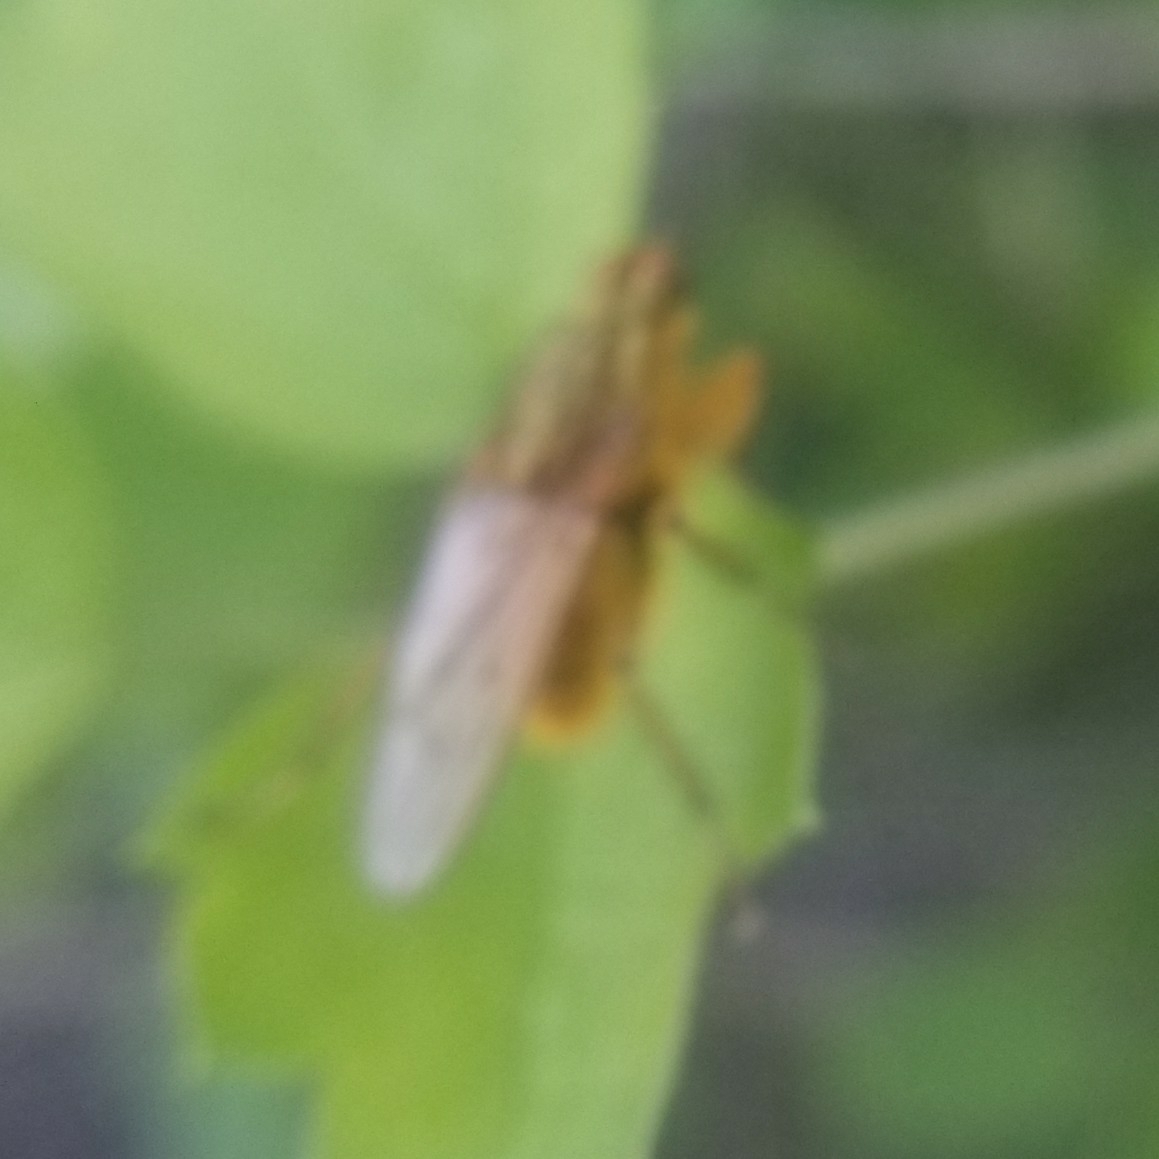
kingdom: Animalia
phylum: Arthropoda
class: Insecta
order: Diptera
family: Scathophagidae
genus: Scathophaga
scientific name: Scathophaga stercoraria
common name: Yellow dung fly
